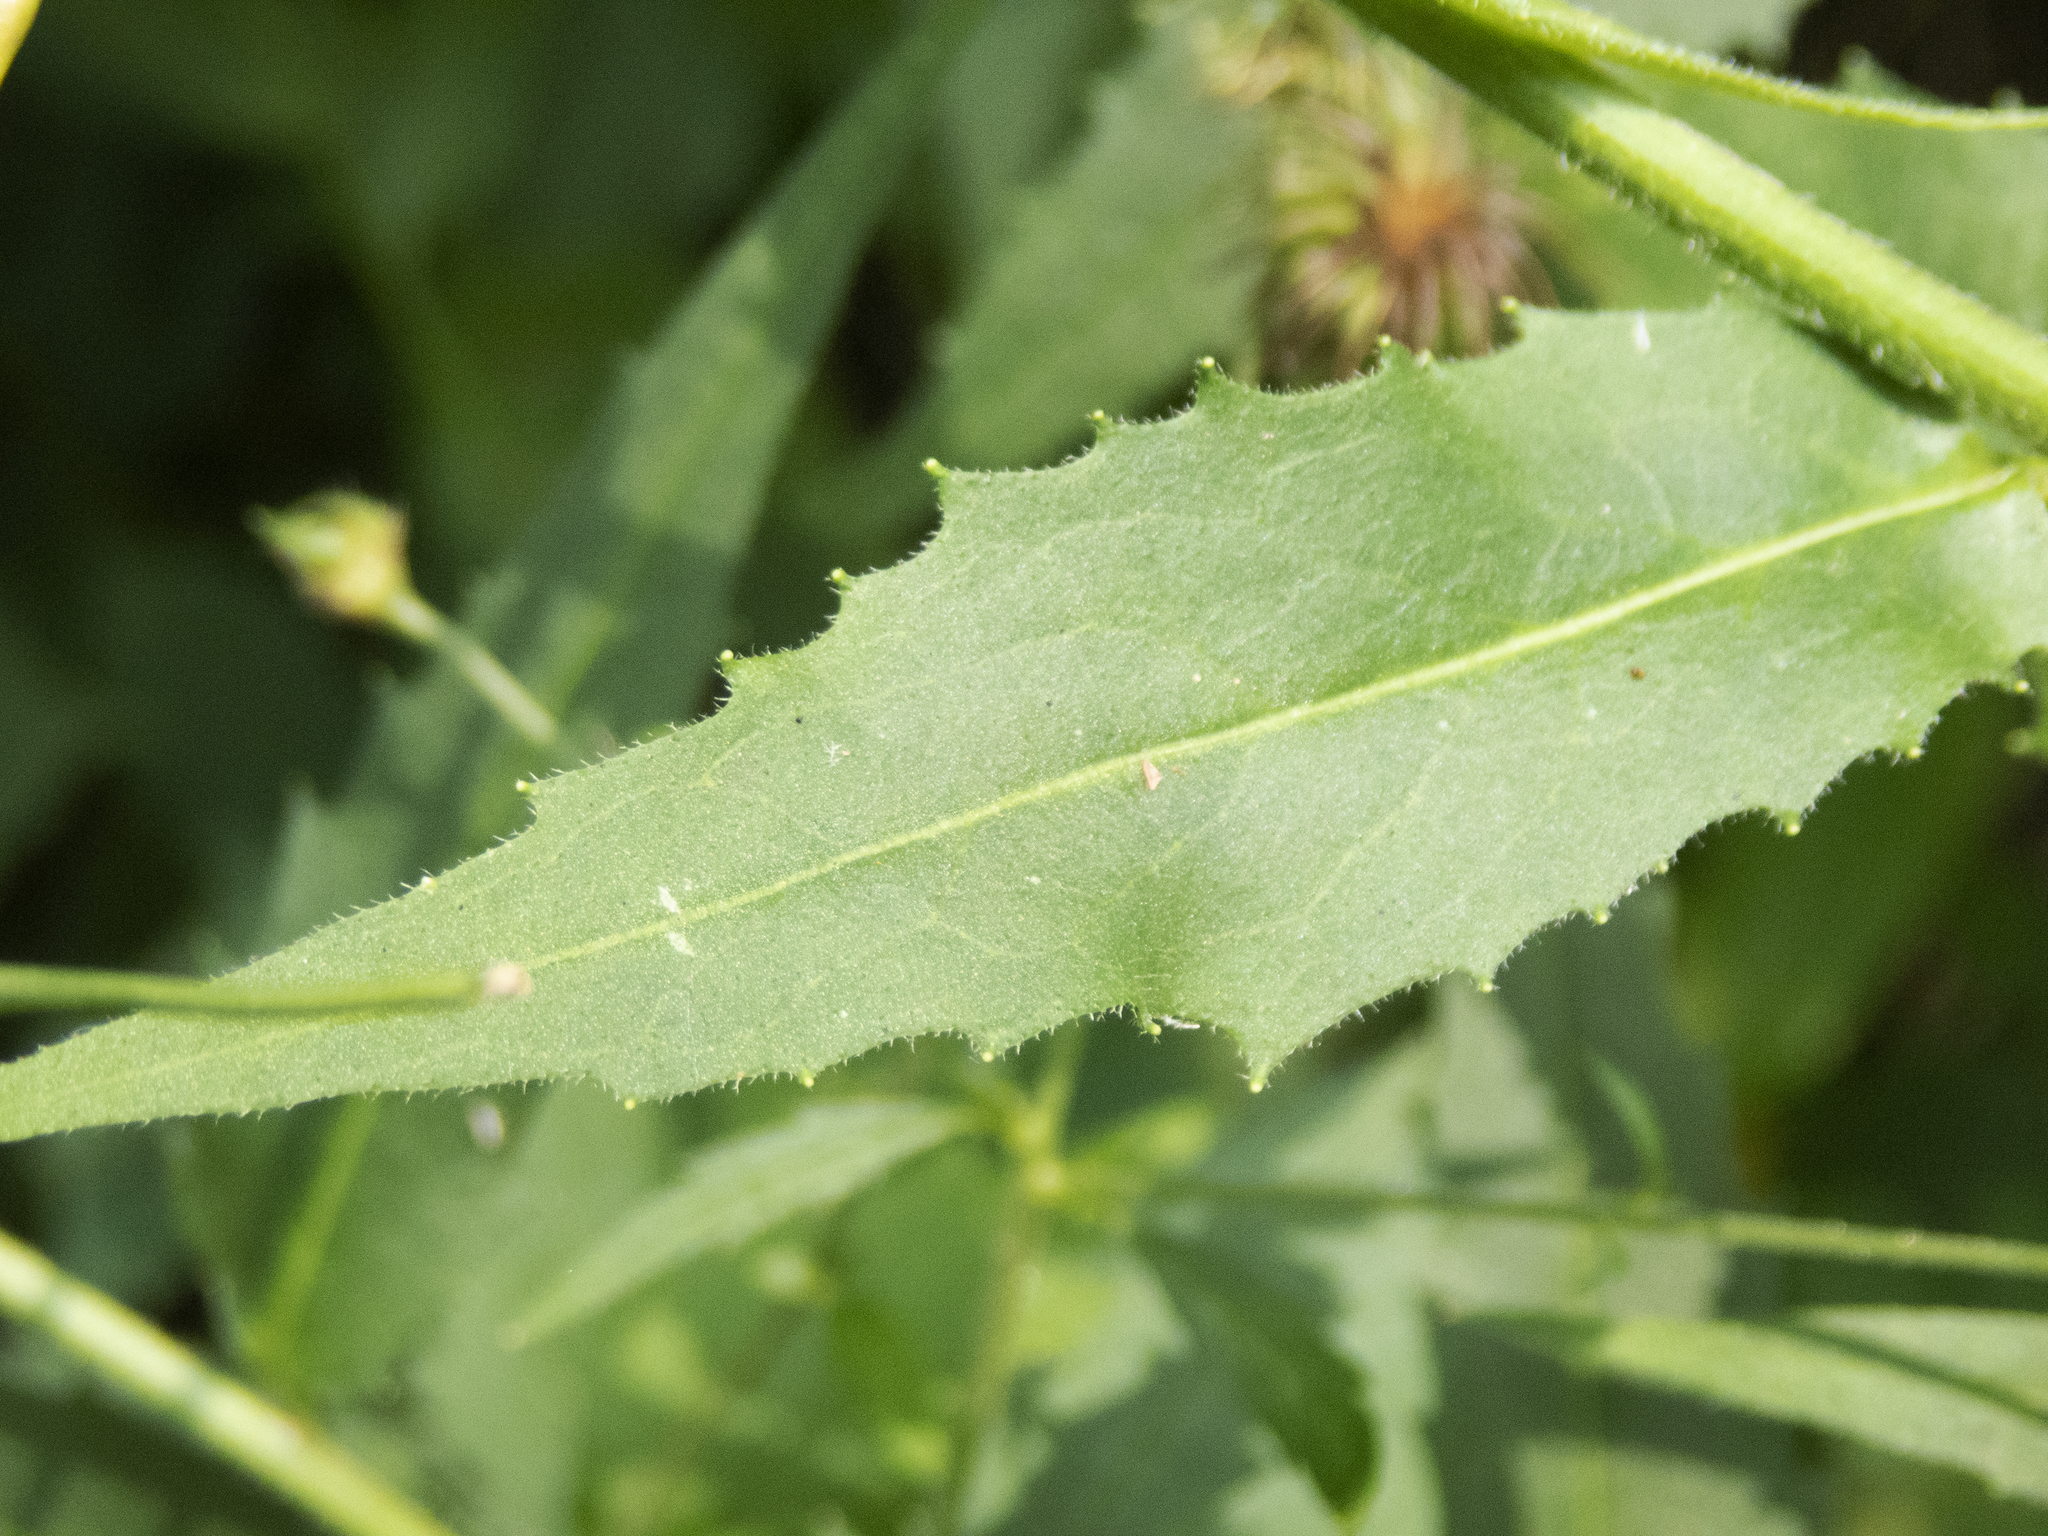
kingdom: Plantae
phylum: Tracheophyta
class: Magnoliopsida
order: Brassicales
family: Brassicaceae
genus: Hesperis
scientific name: Hesperis matronalis
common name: Dame's-violet
